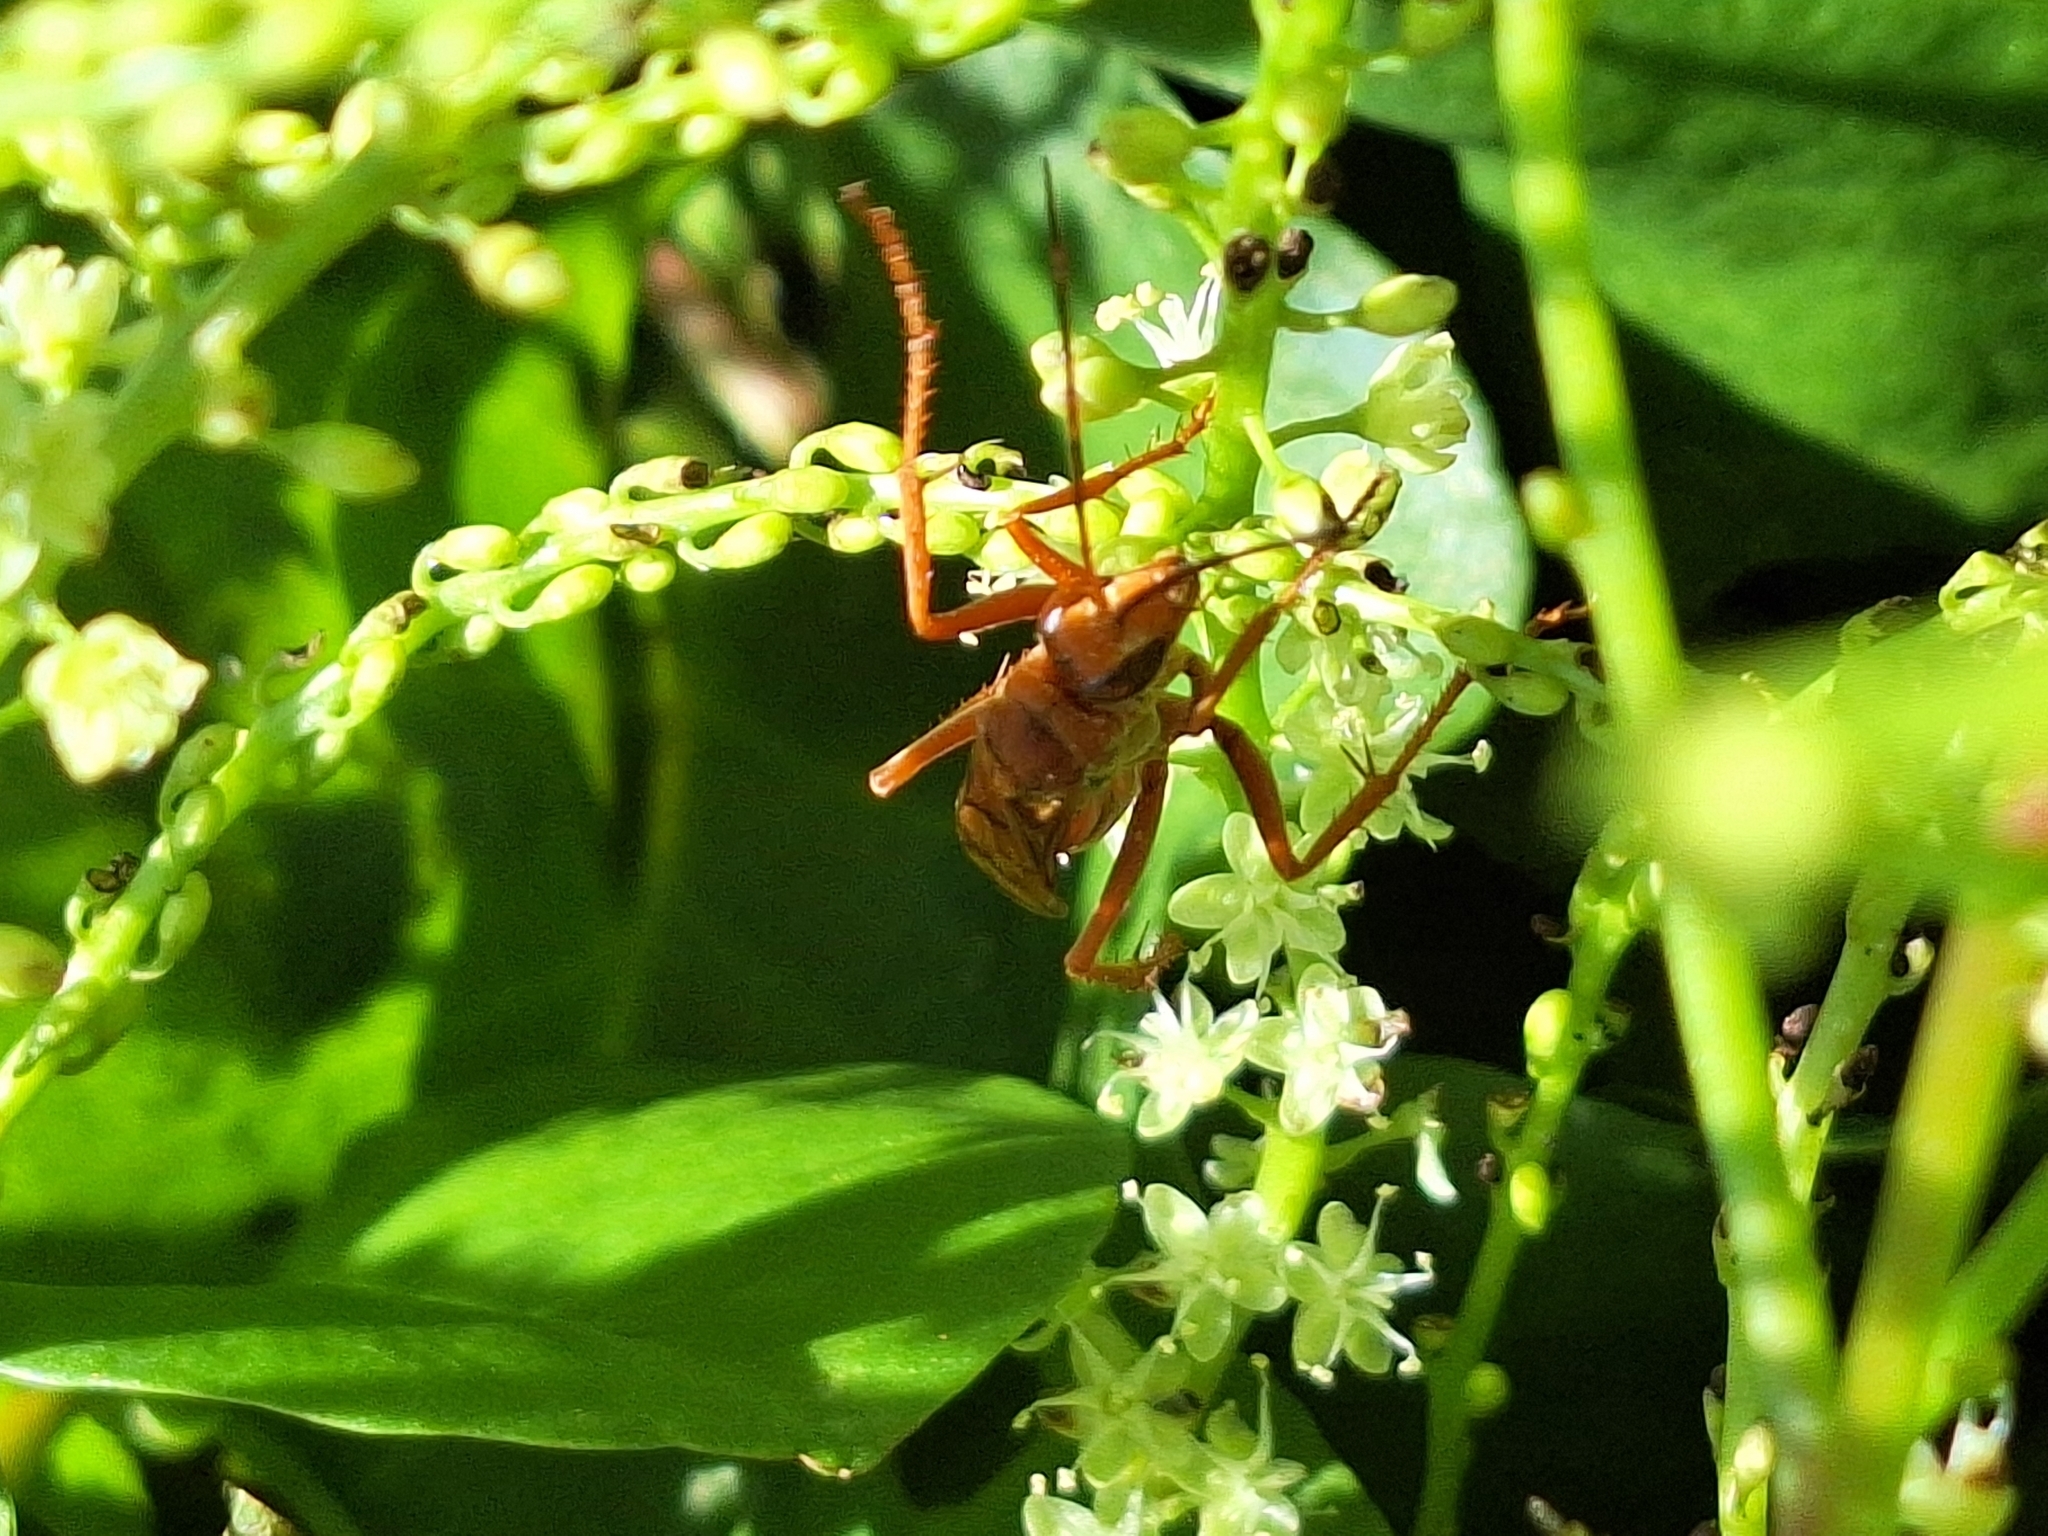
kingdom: Animalia
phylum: Arthropoda
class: Insecta
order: Hymenoptera
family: Pompilidae
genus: Tachypompilus
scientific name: Tachypompilus mendozae
